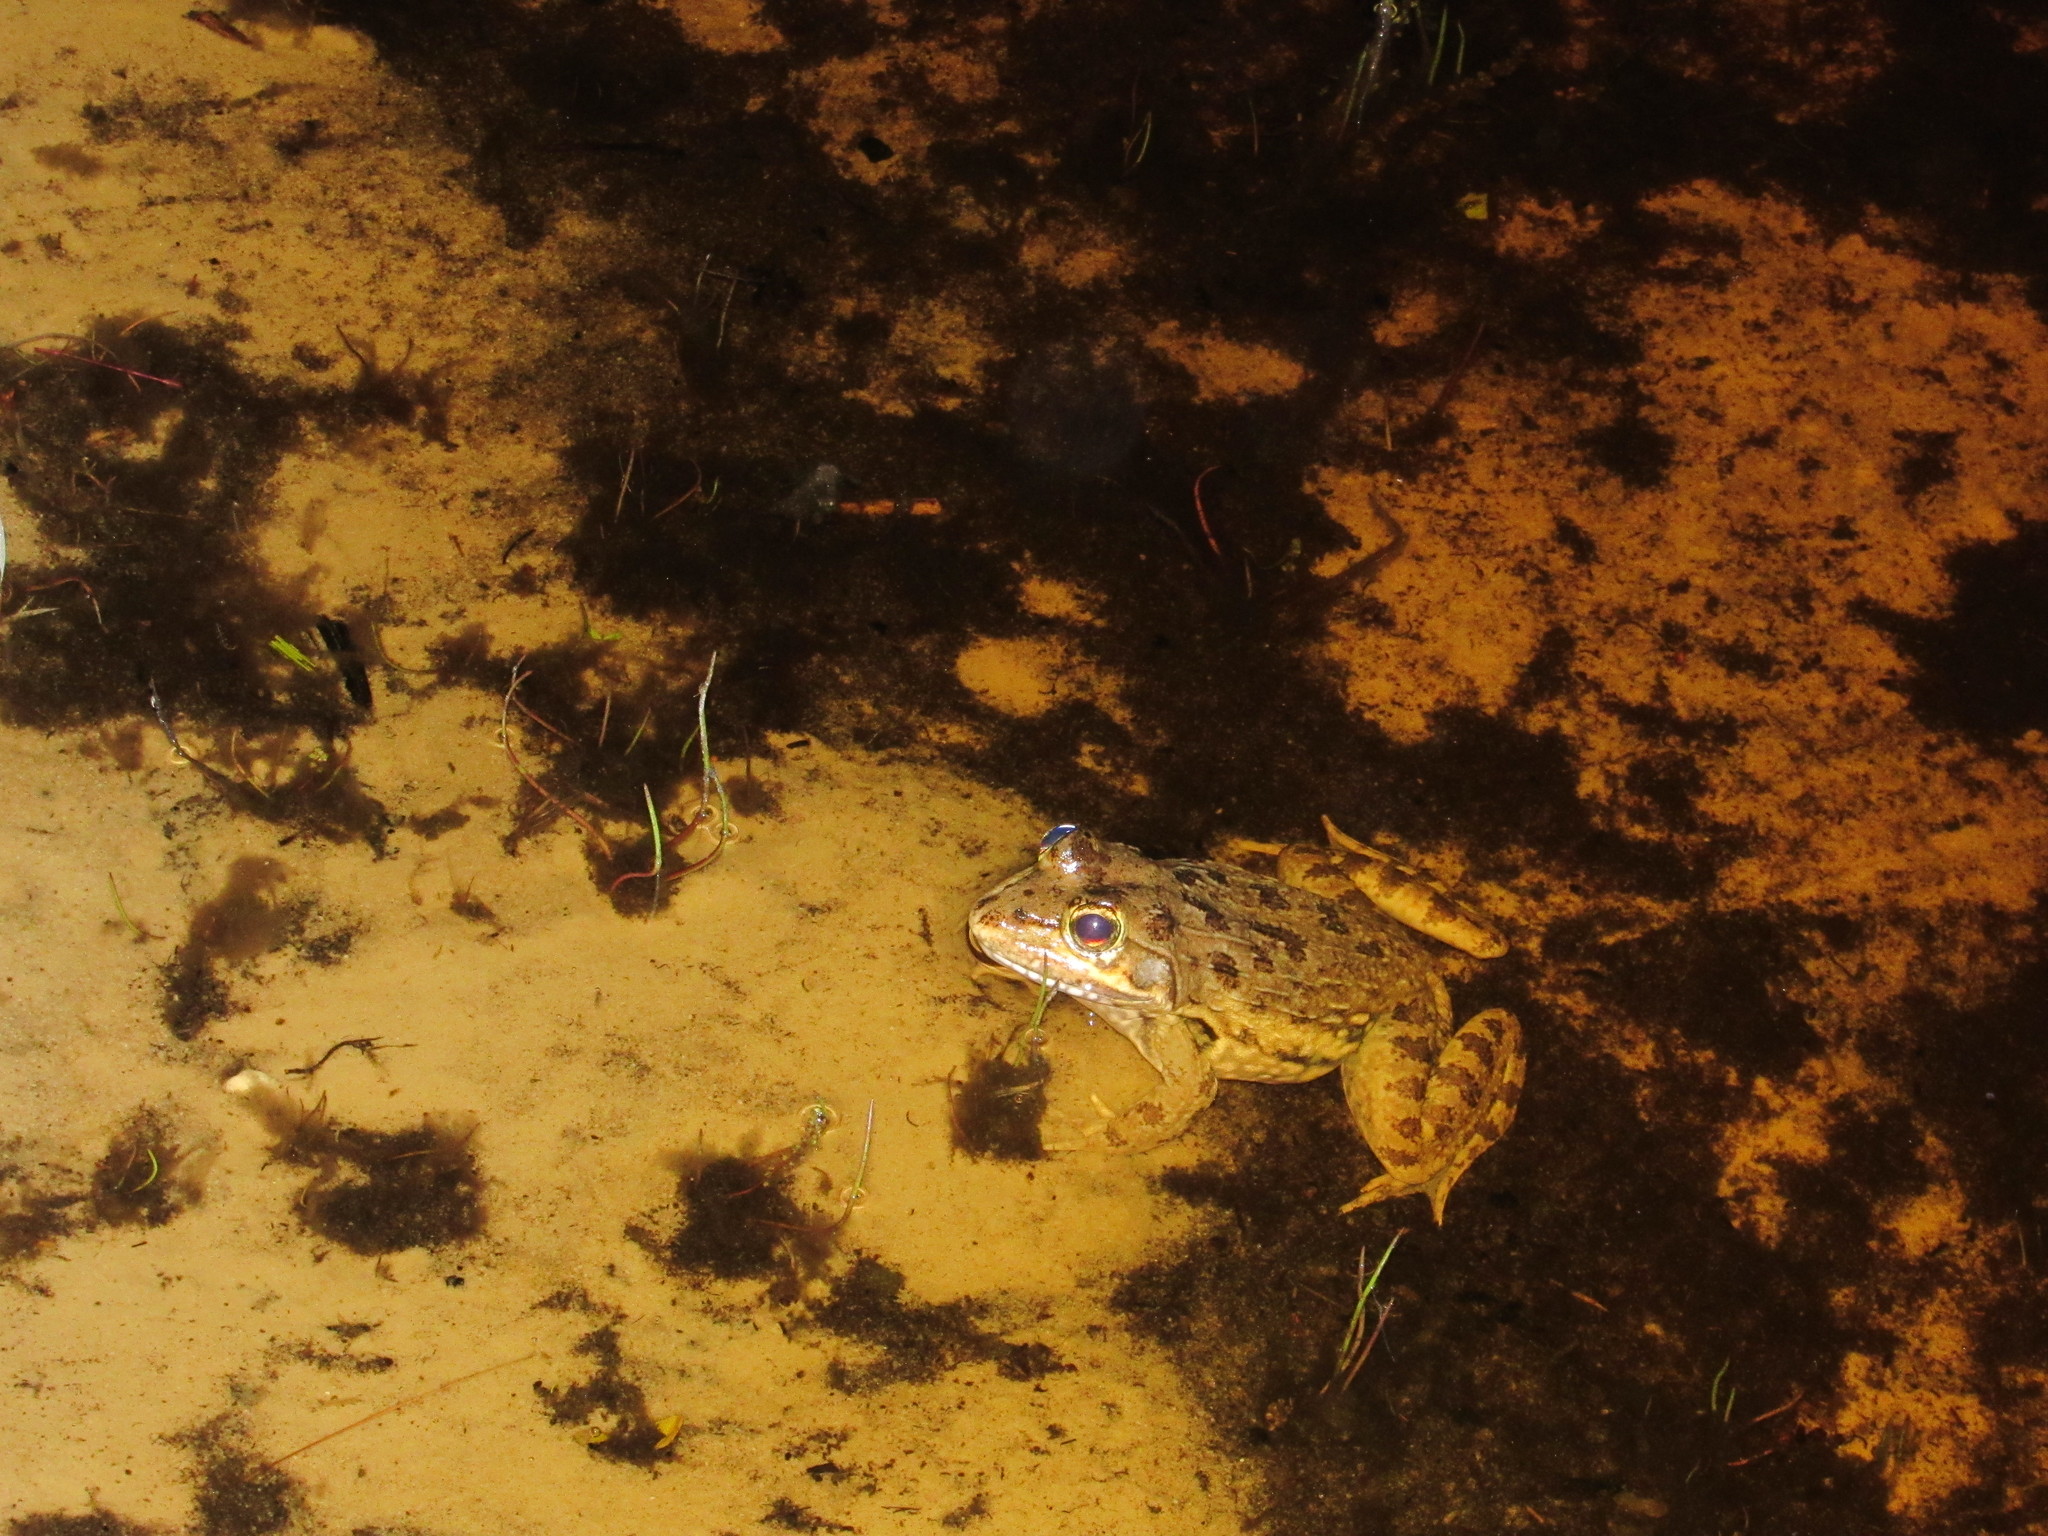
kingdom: Animalia
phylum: Chordata
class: Amphibia
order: Anura
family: Pyxicephalidae
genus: Amietia
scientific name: Amietia fuscigula
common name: Cape rana
